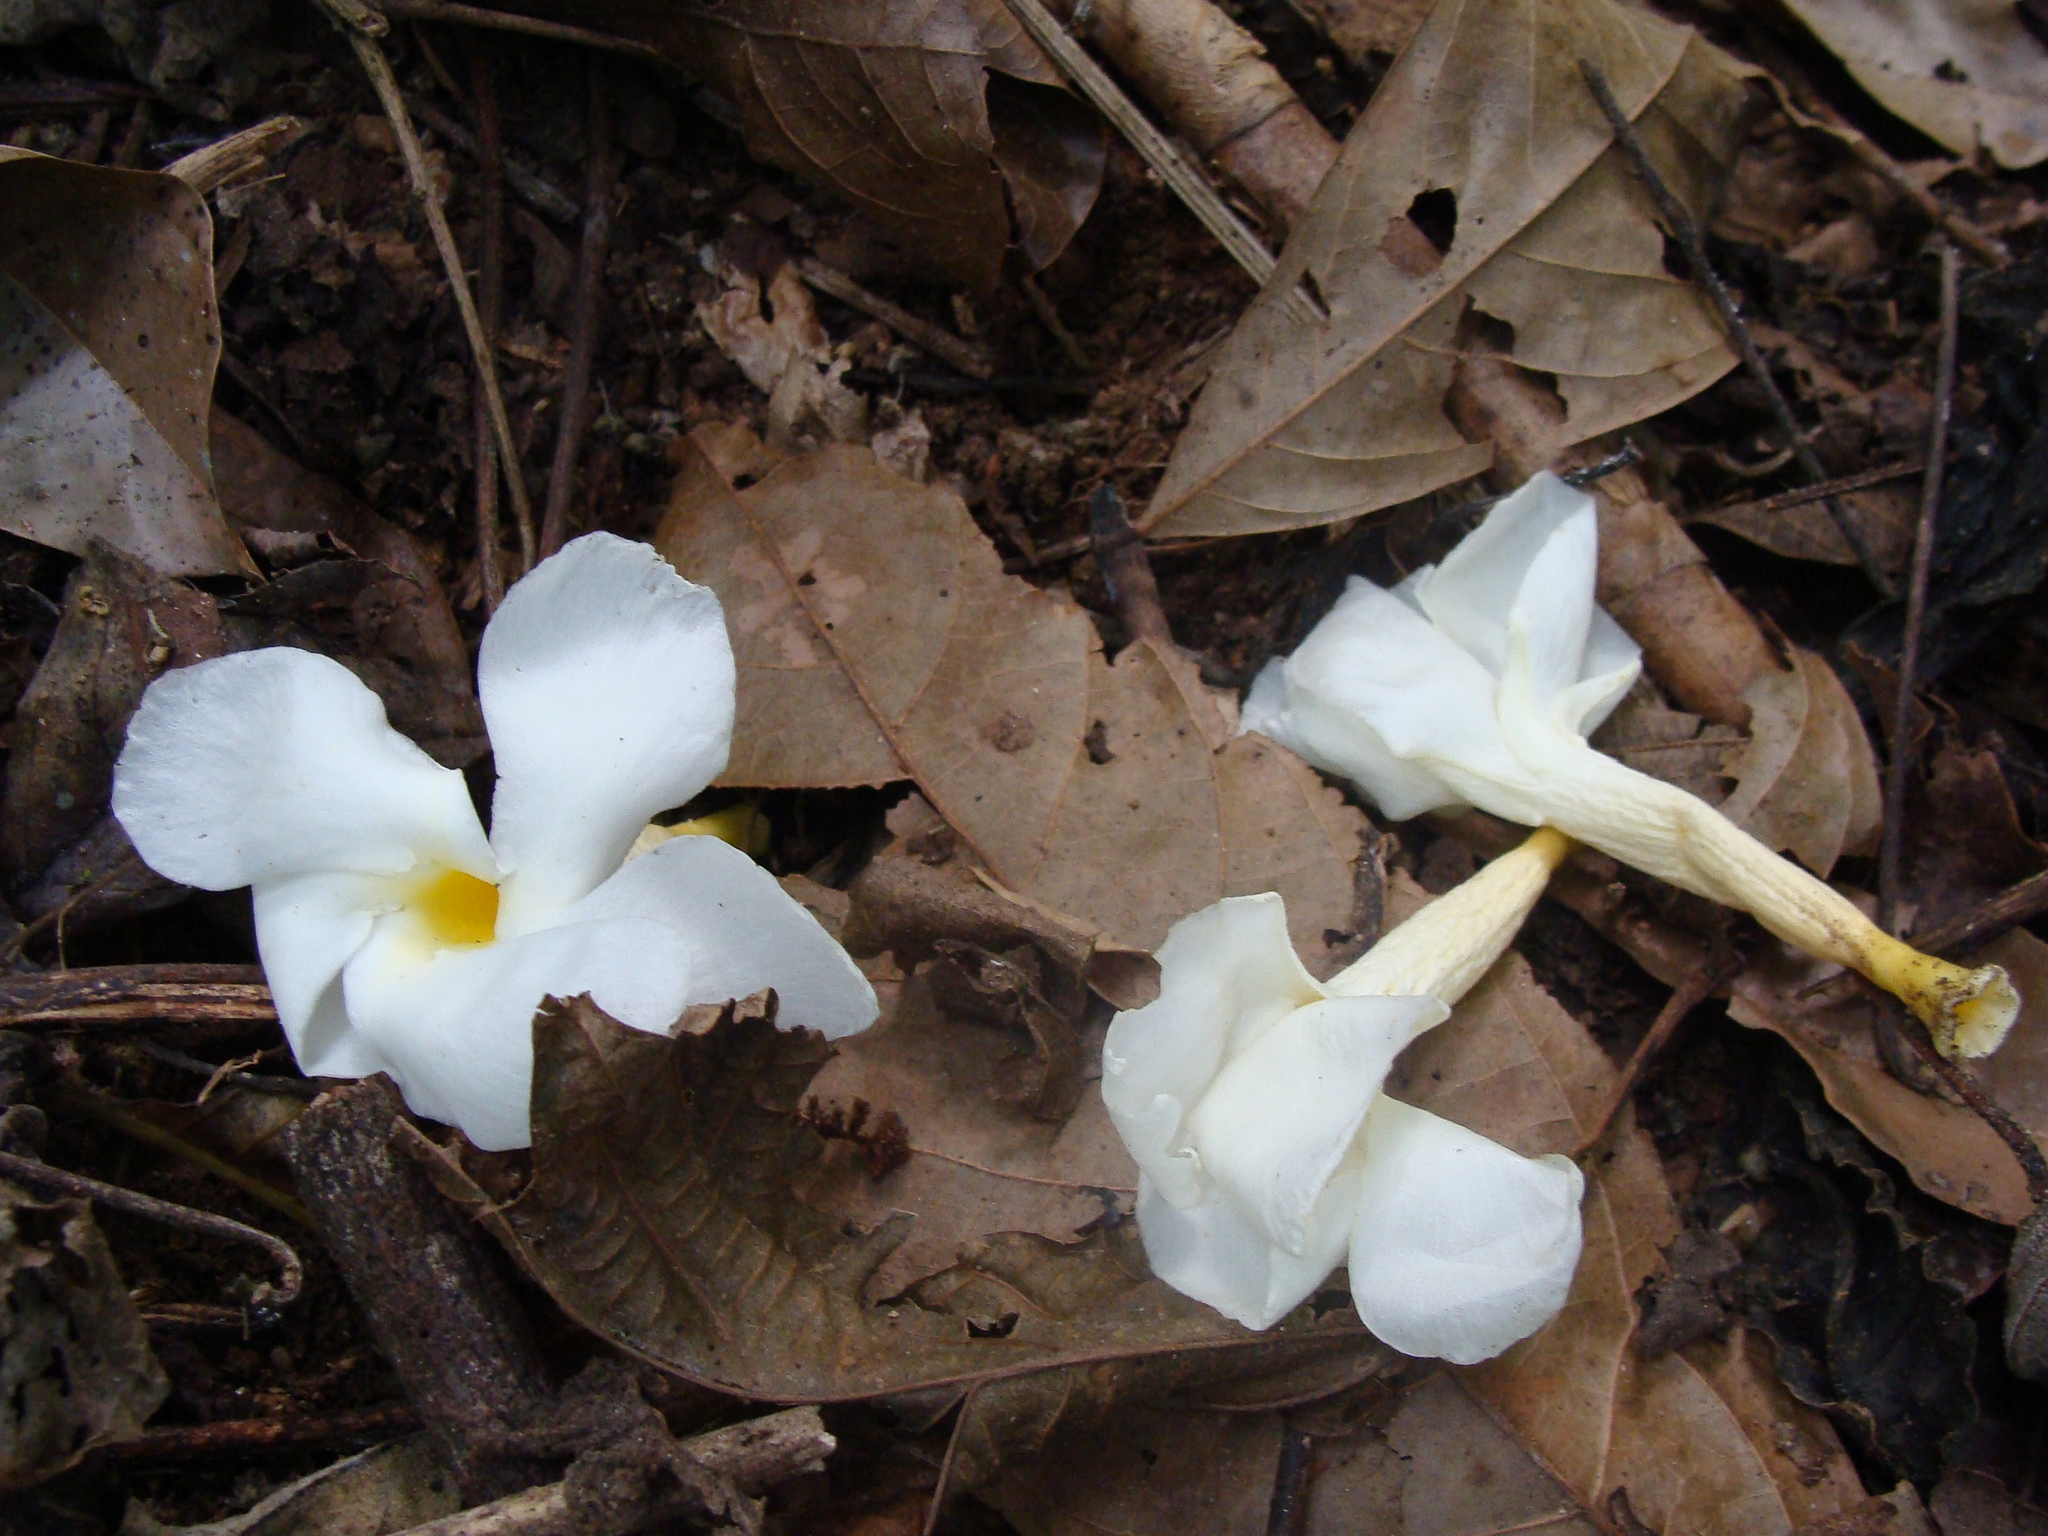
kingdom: Plantae
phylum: Tracheophyta
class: Magnoliopsida
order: Gentianales
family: Apocynaceae
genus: Tabernaemontana
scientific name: Tabernaemontana litoralis
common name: Milkwood
